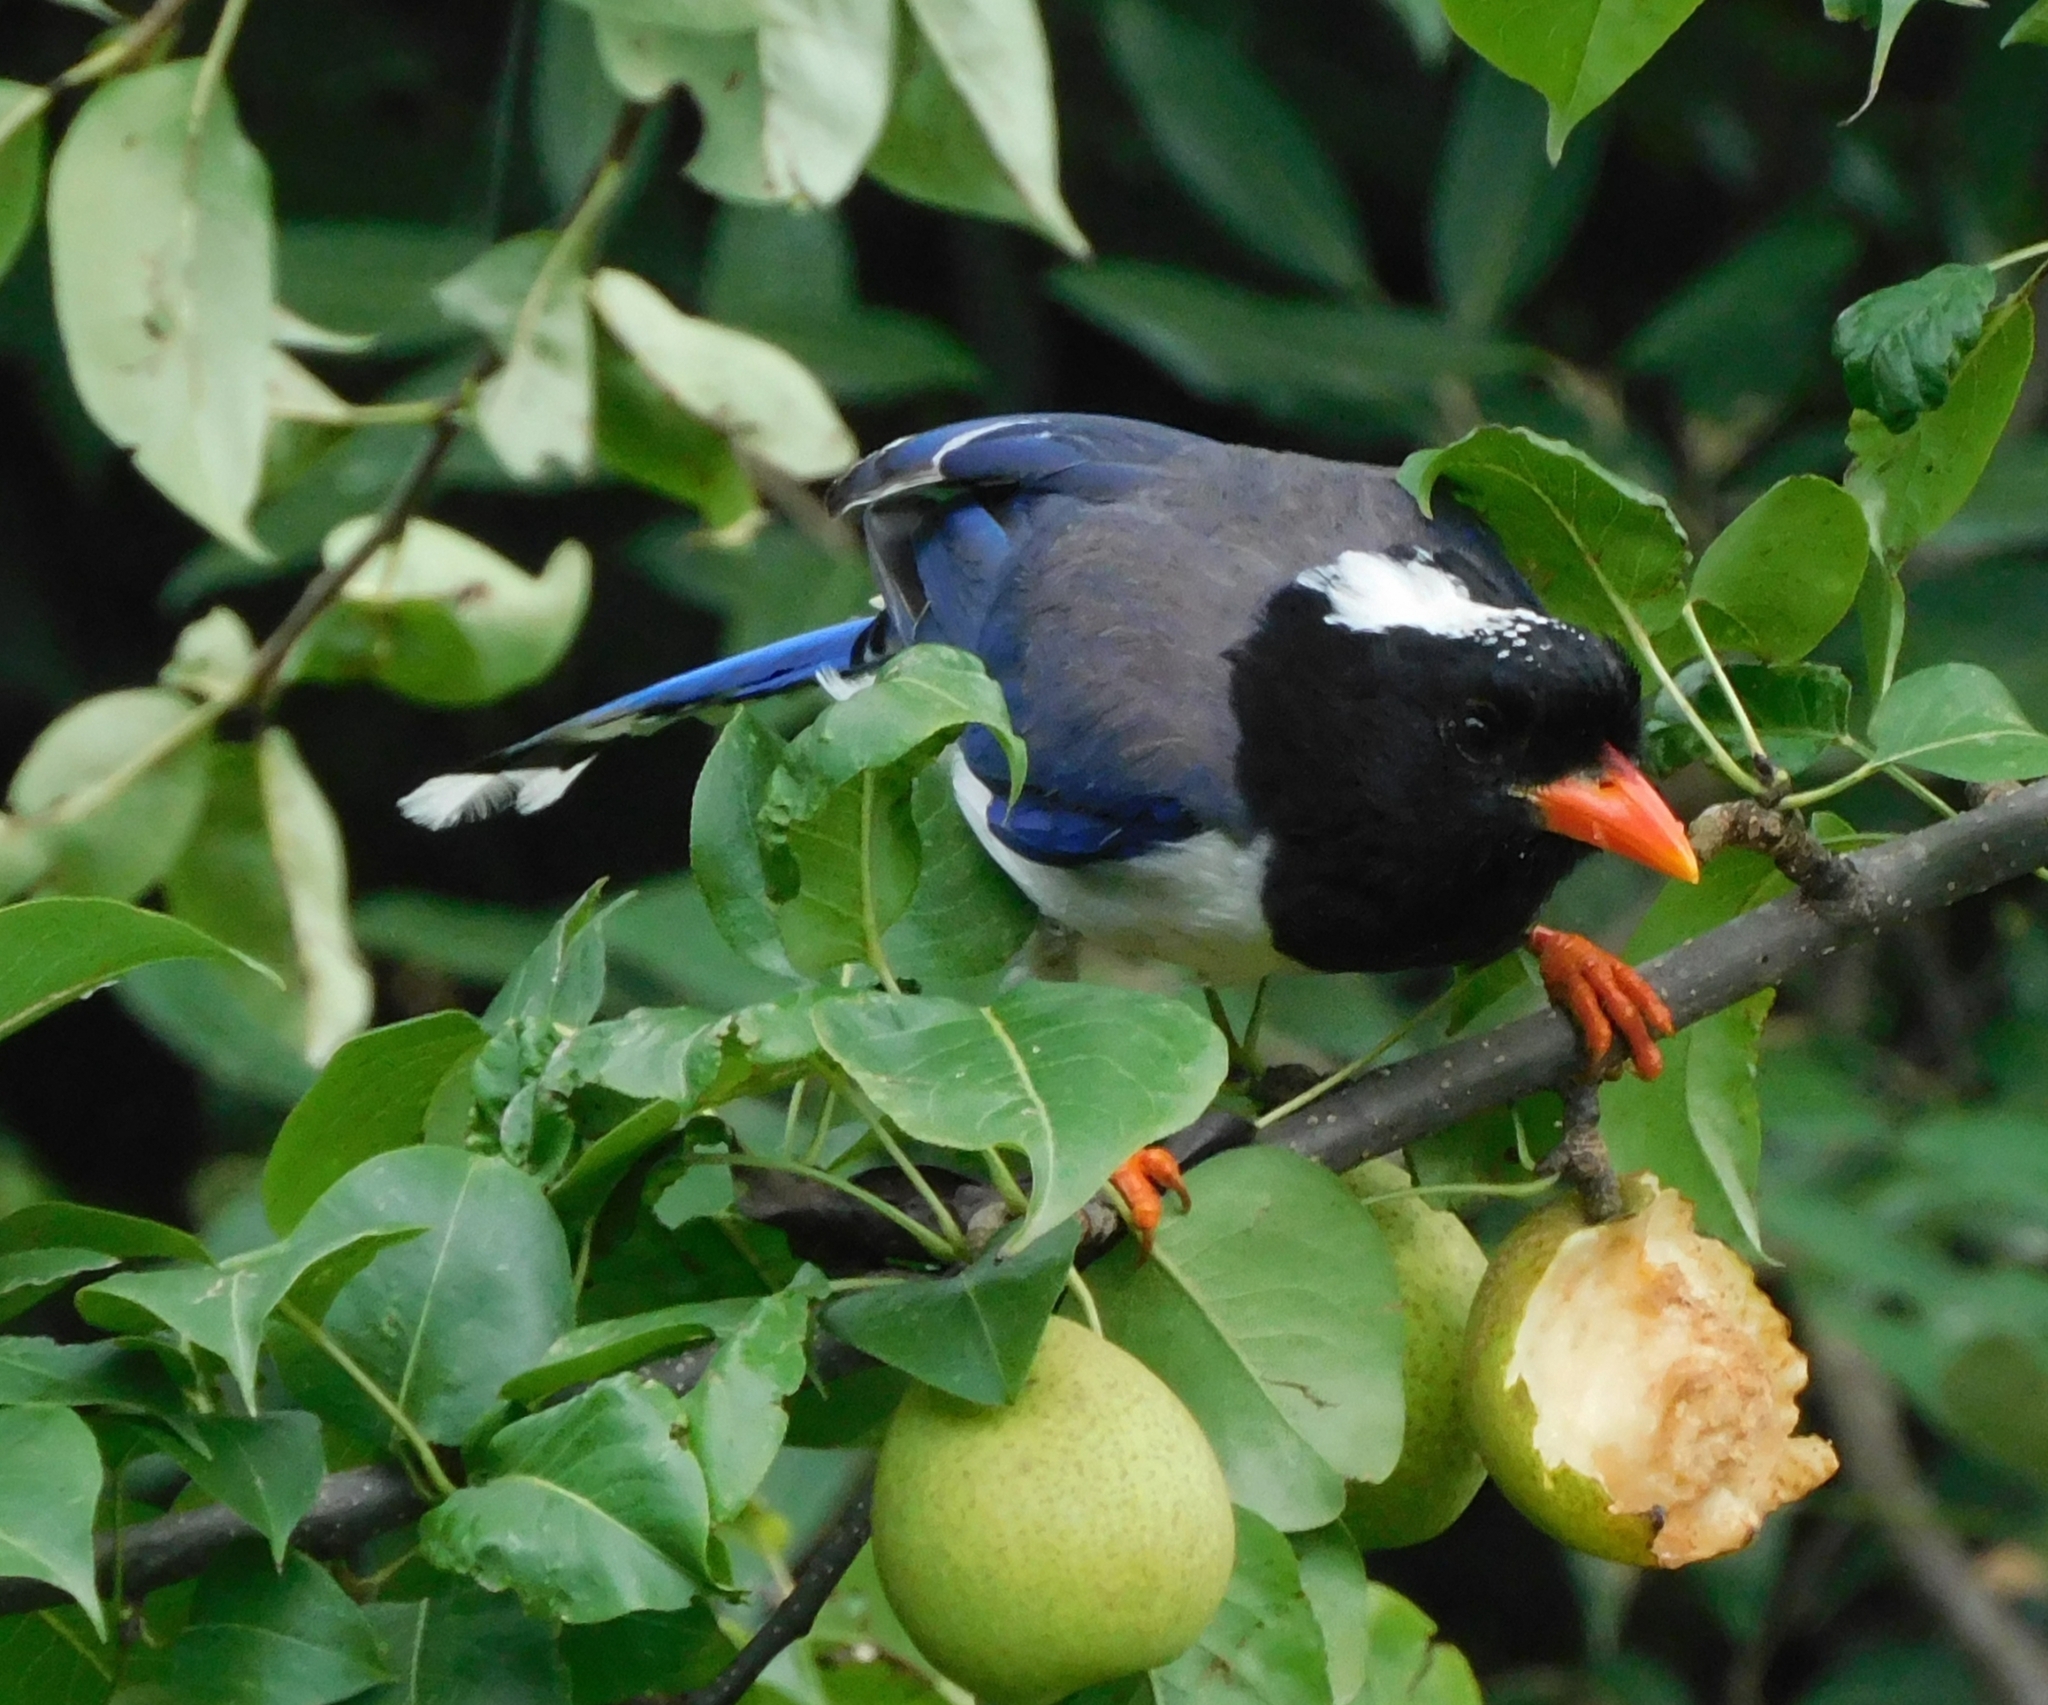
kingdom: Animalia
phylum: Chordata
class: Aves
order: Passeriformes
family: Corvidae
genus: Urocissa
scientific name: Urocissa erythroryncha
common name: Red-billed blue magpie
